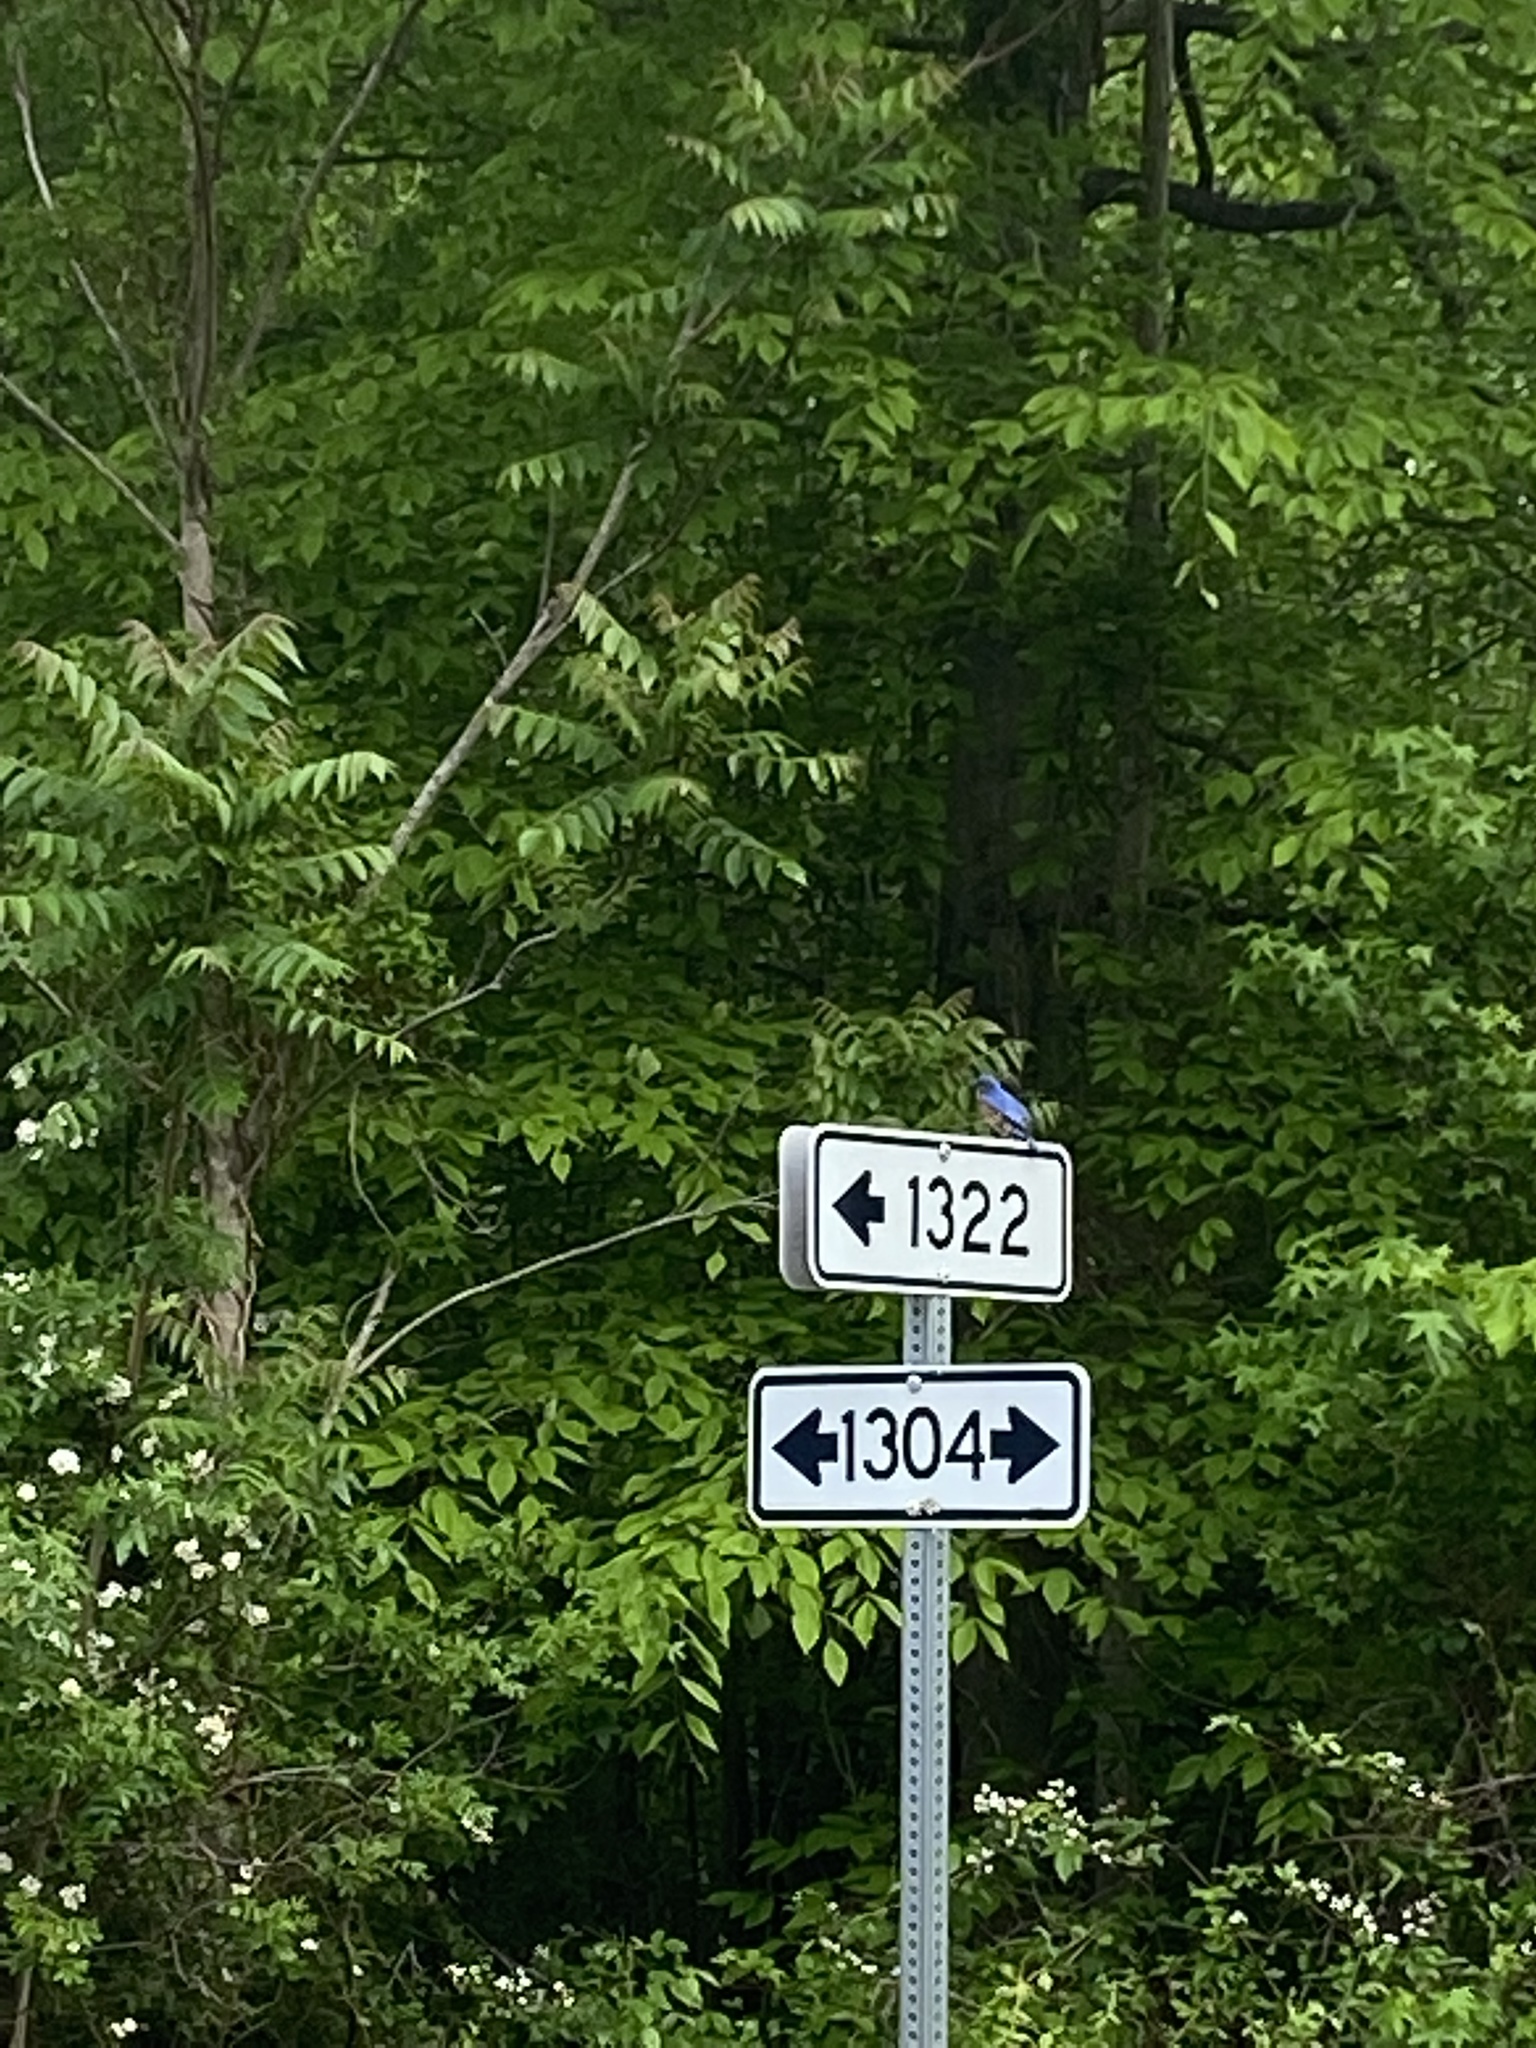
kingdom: Animalia
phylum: Chordata
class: Aves
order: Passeriformes
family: Turdidae
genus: Sialia
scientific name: Sialia sialis
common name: Eastern bluebird
